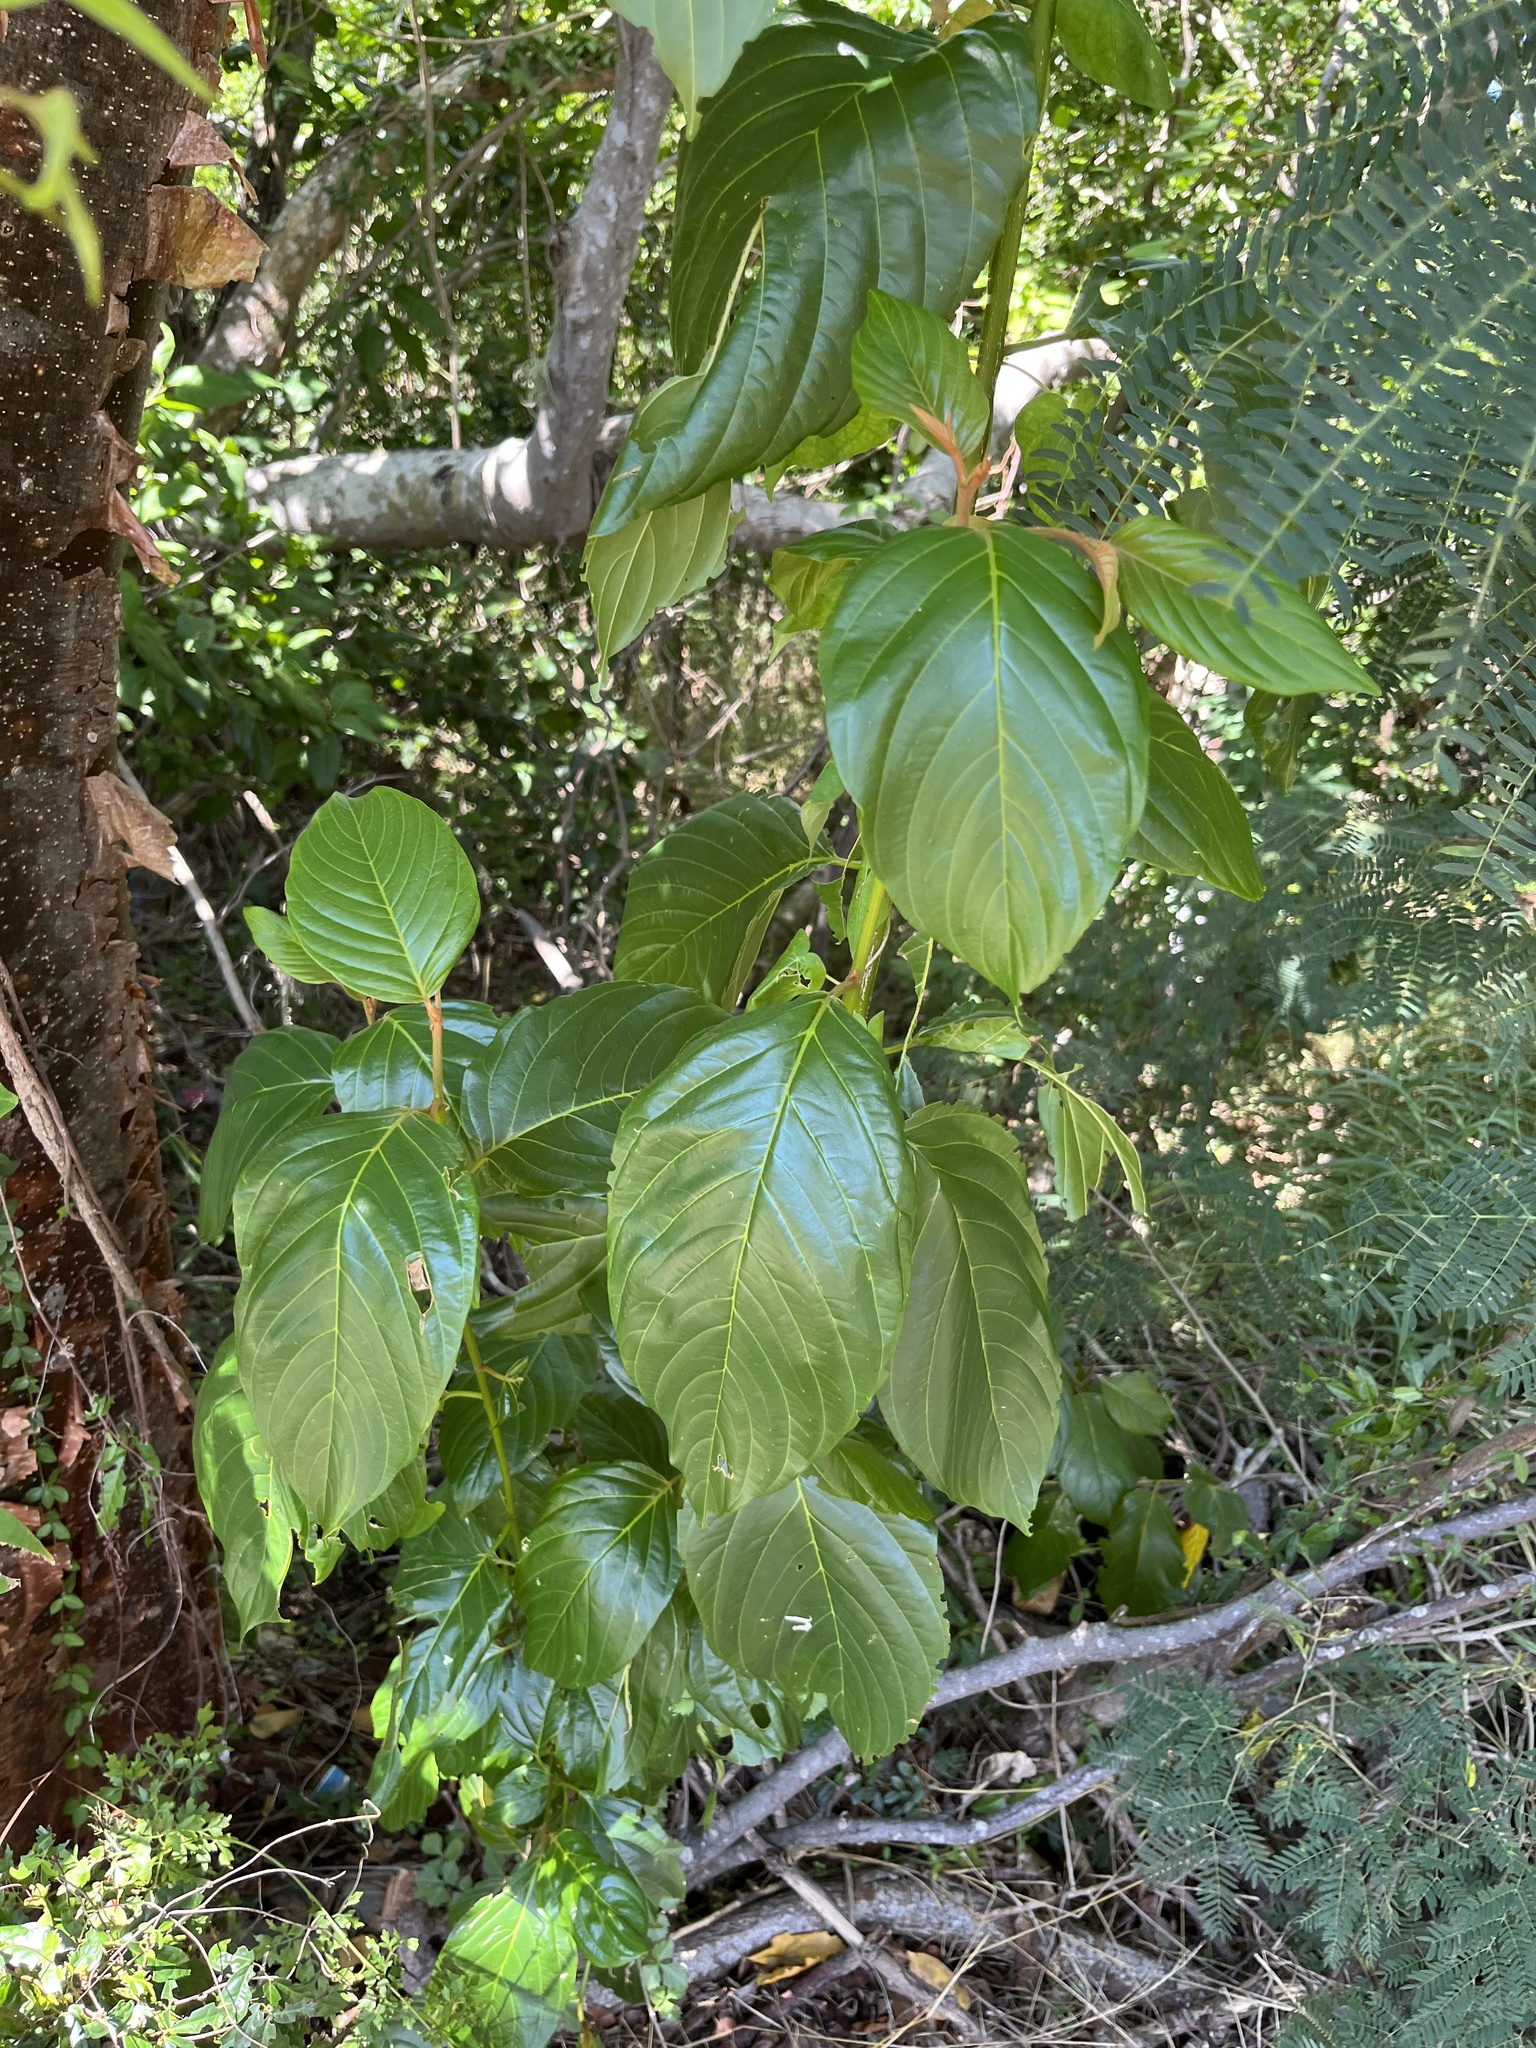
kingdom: Plantae
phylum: Tracheophyta
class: Magnoliopsida
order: Rosales
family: Rhamnaceae
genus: Colubrina
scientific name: Colubrina arborescens
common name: Wild coffee
